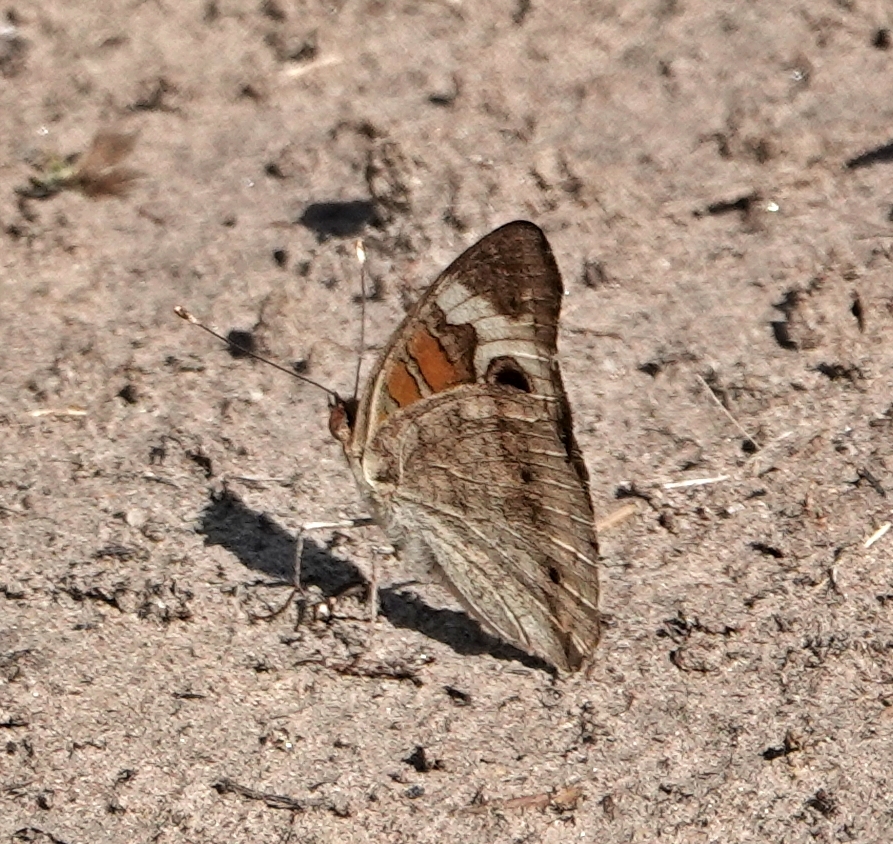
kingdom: Animalia
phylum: Arthropoda
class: Insecta
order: Lepidoptera
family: Nymphalidae
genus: Junonia
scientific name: Junonia coenia
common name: Common buckeye
